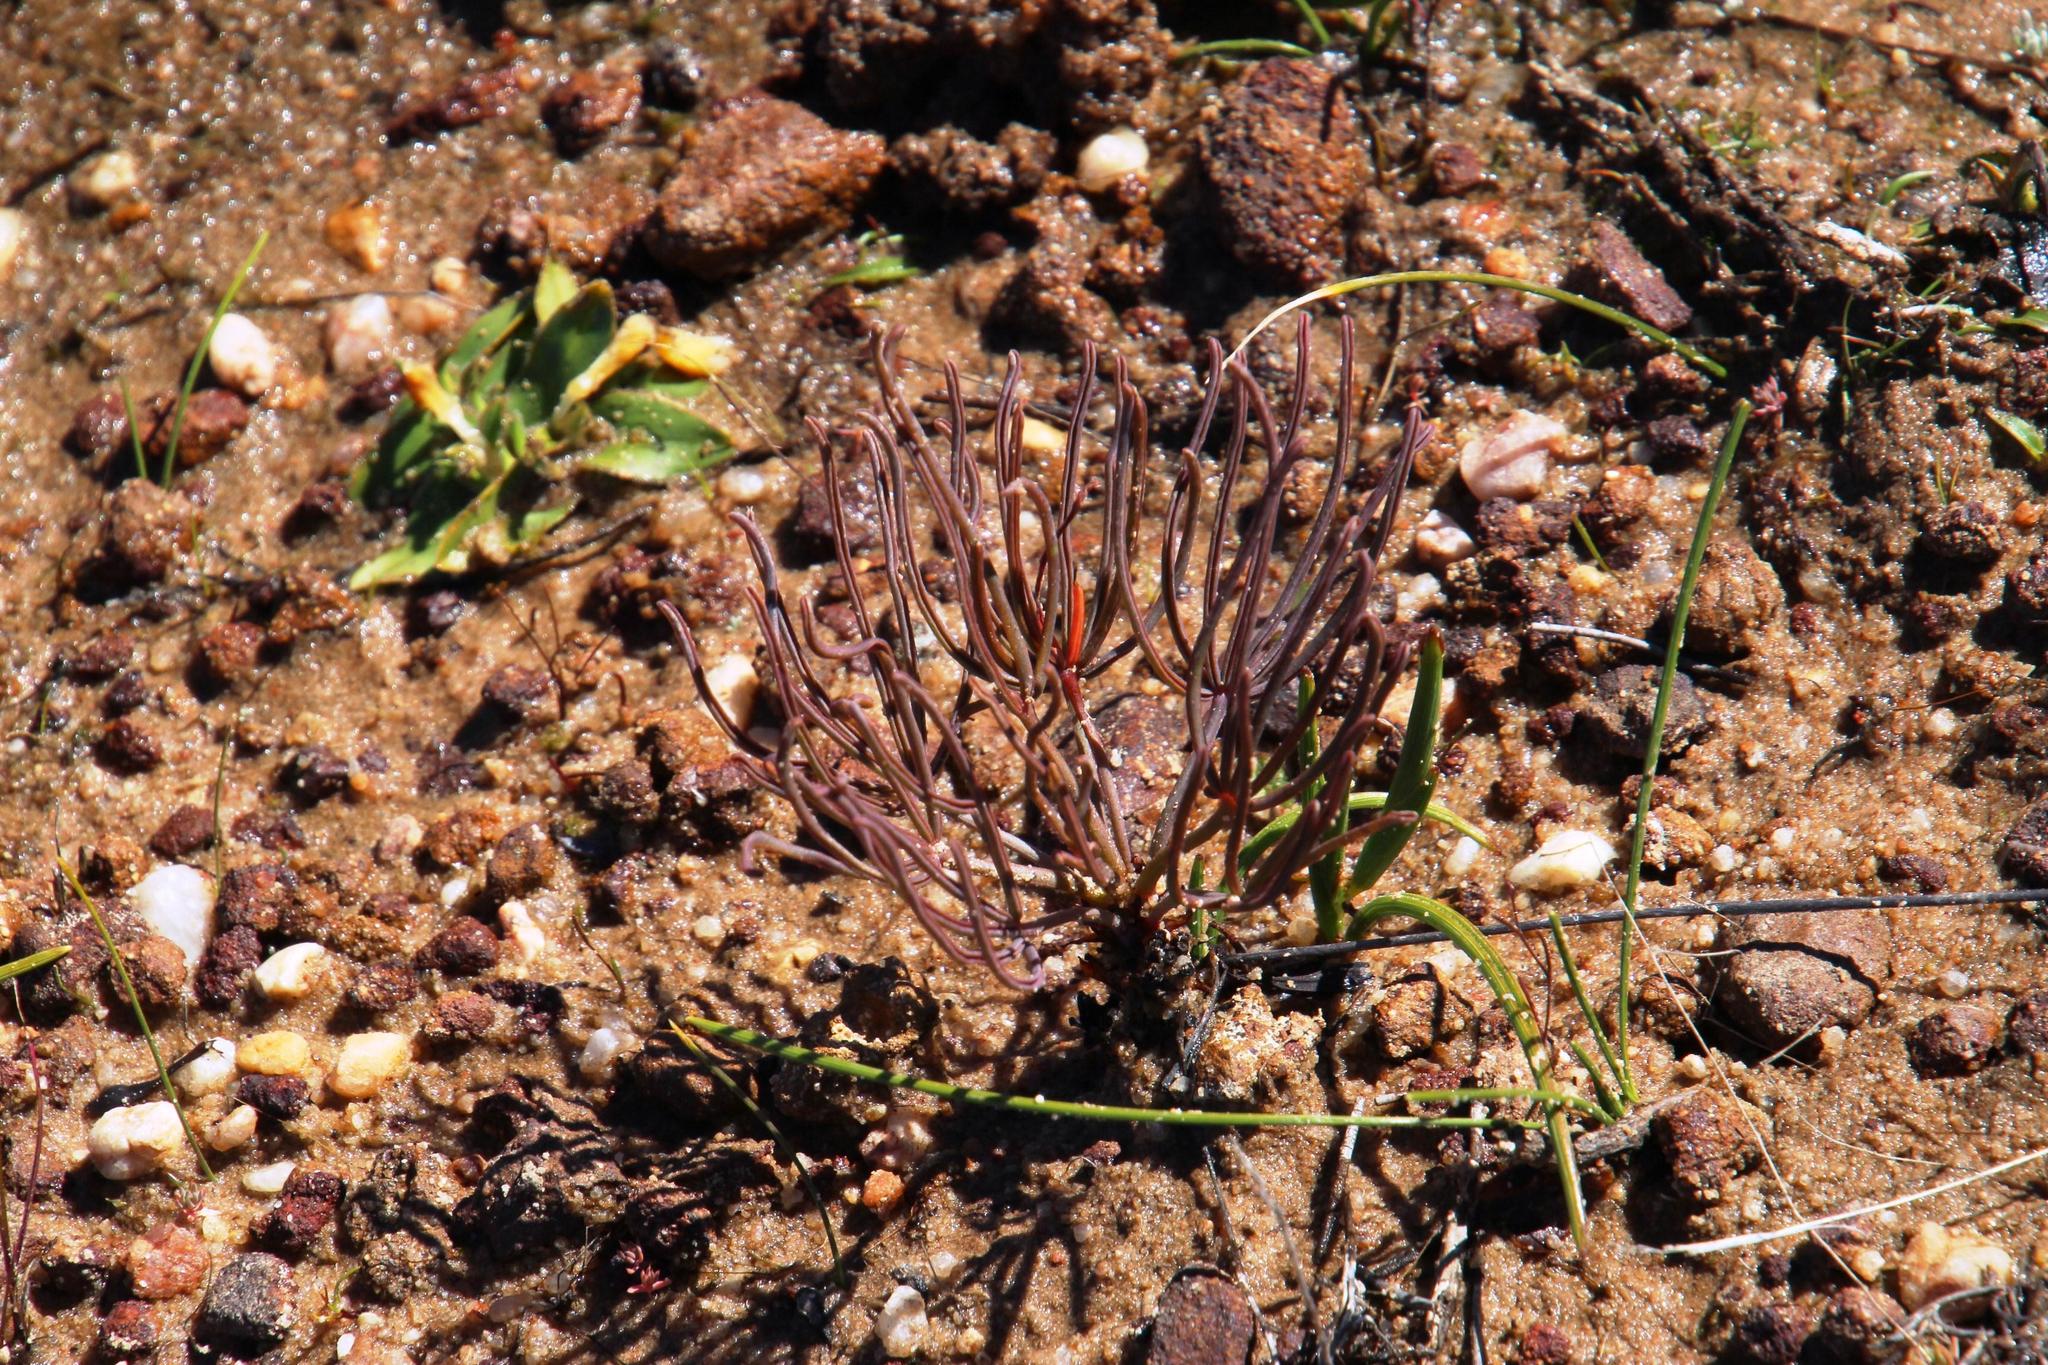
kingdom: Plantae
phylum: Tracheophyta
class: Magnoliopsida
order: Oxalidales
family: Oxalidaceae
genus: Oxalis
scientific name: Oxalis flava
